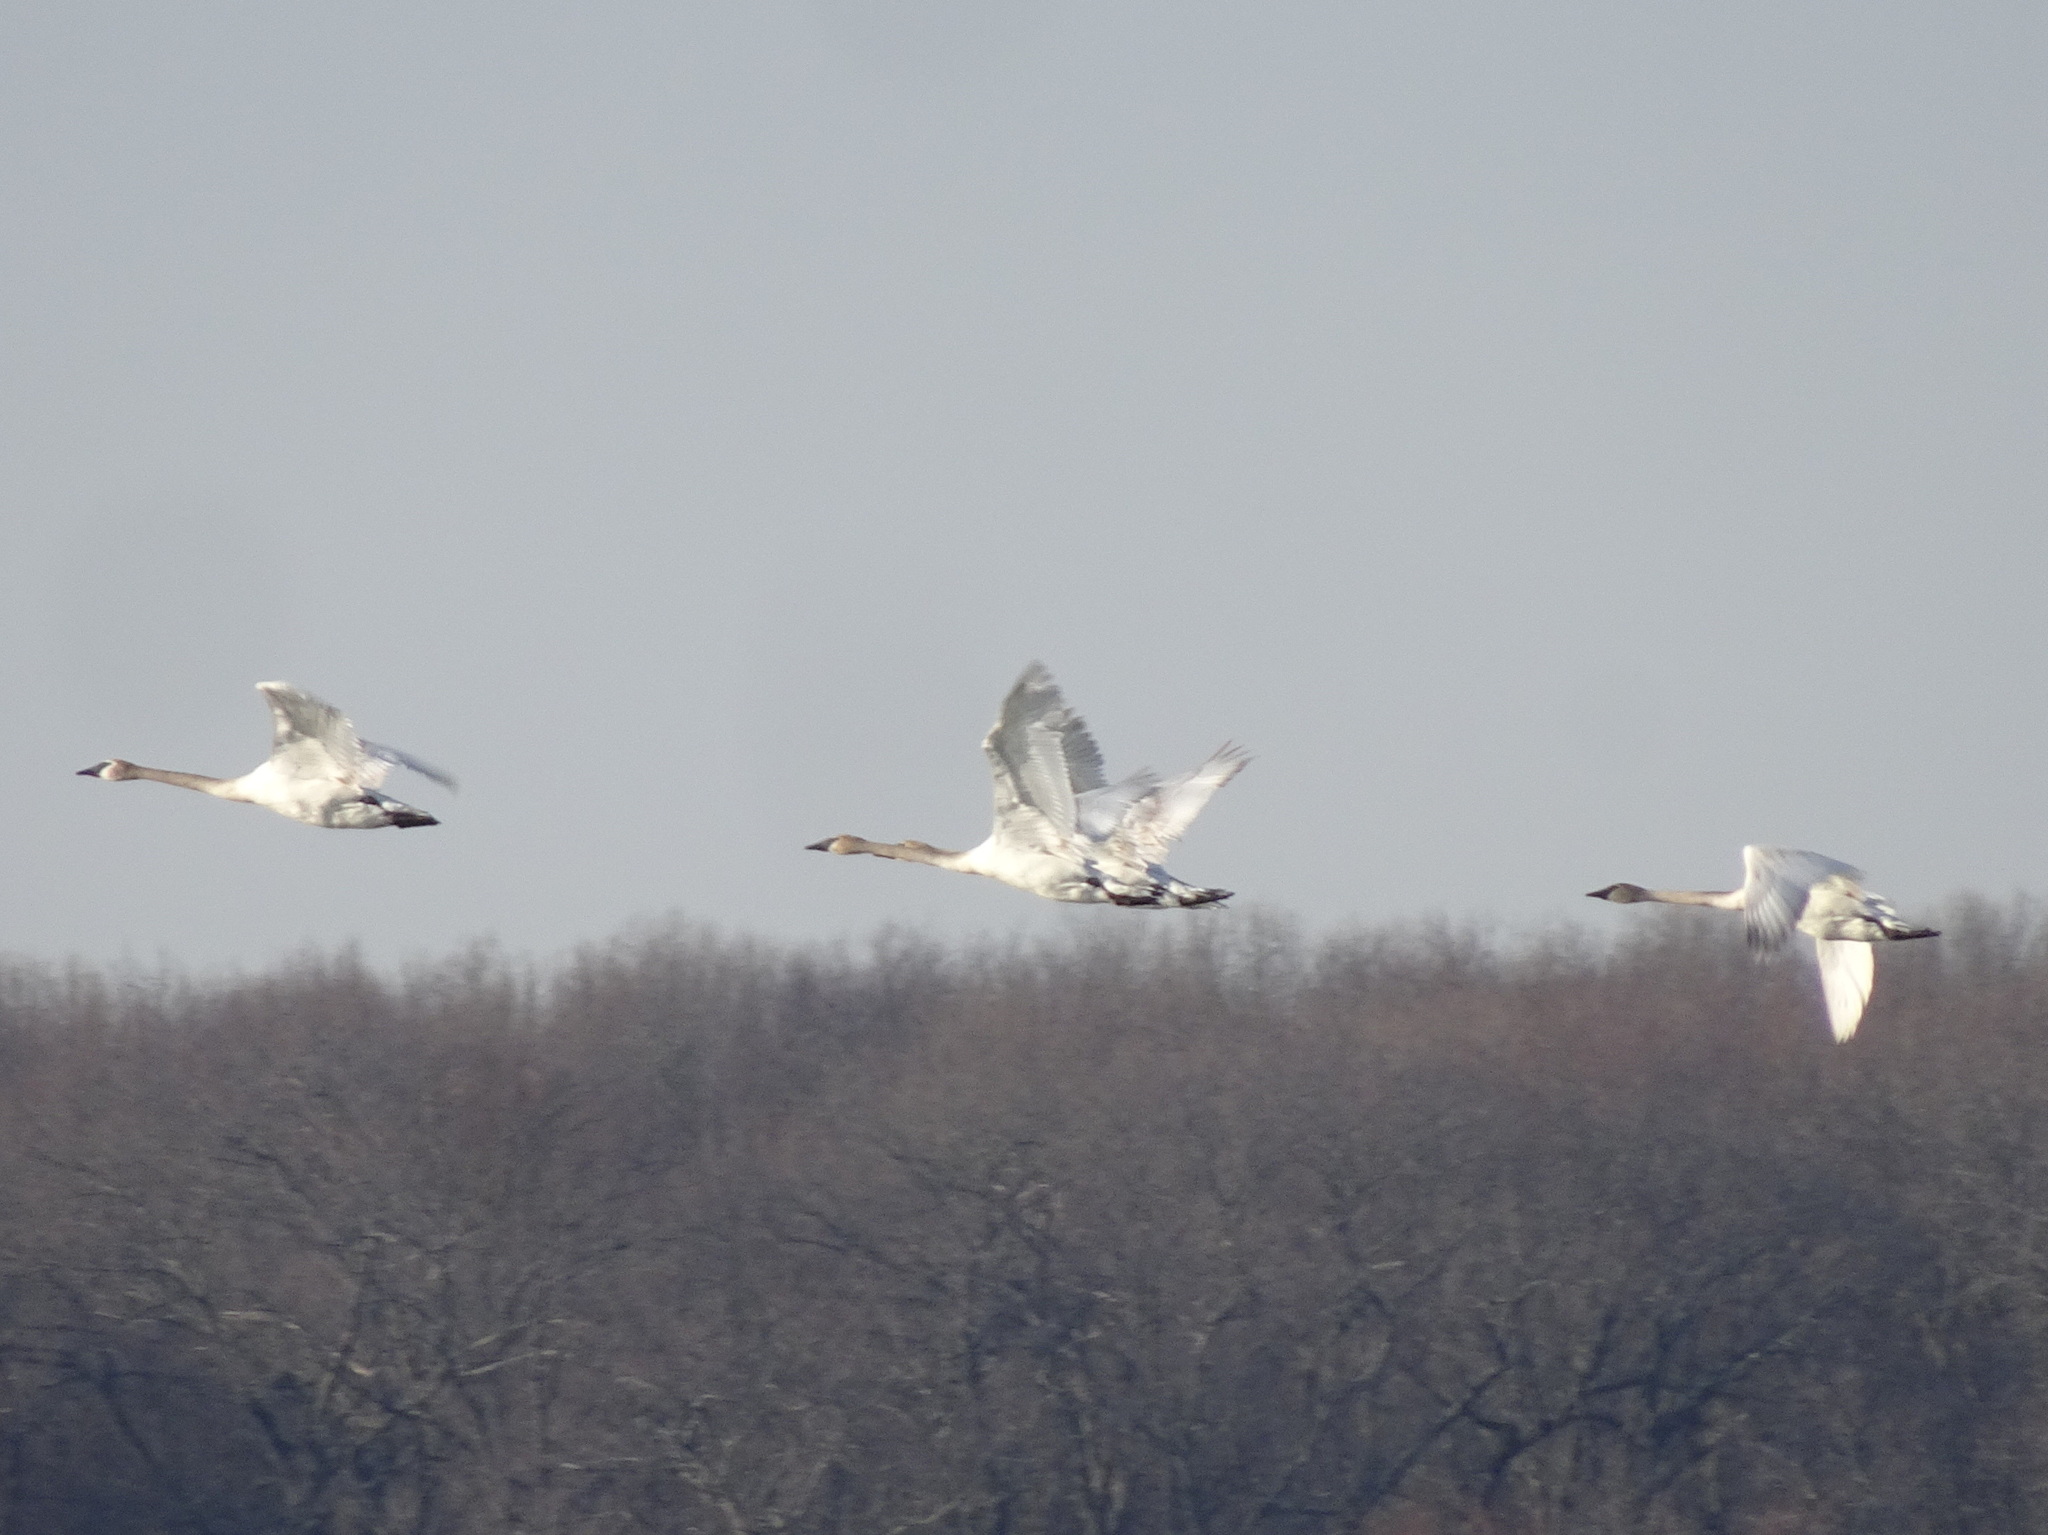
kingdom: Animalia
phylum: Chordata
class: Aves
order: Anseriformes
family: Anatidae
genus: Cygnus
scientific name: Cygnus buccinator
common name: Trumpeter swan
